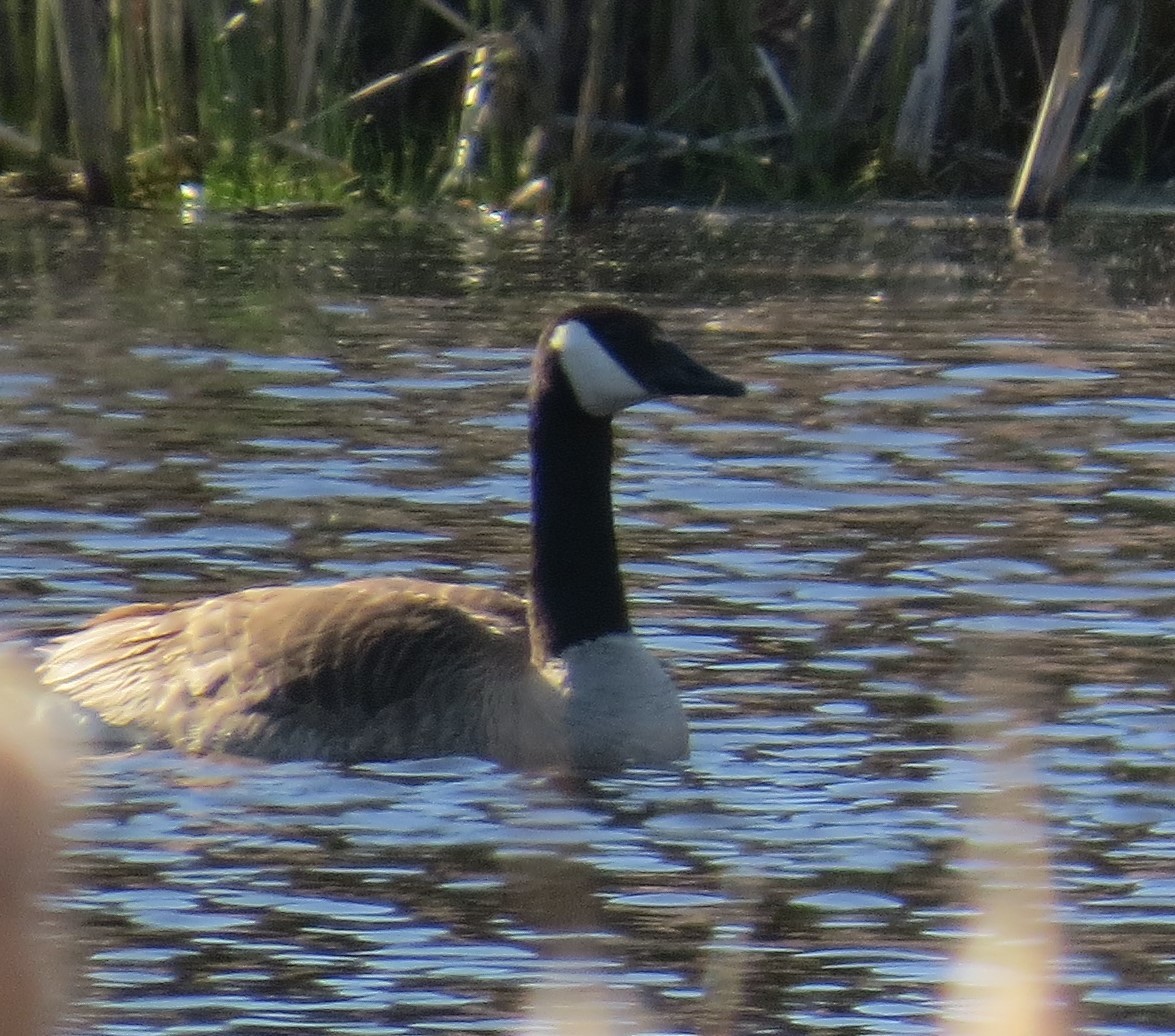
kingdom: Animalia
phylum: Chordata
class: Aves
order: Anseriformes
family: Anatidae
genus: Branta
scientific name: Branta canadensis
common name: Canada goose
